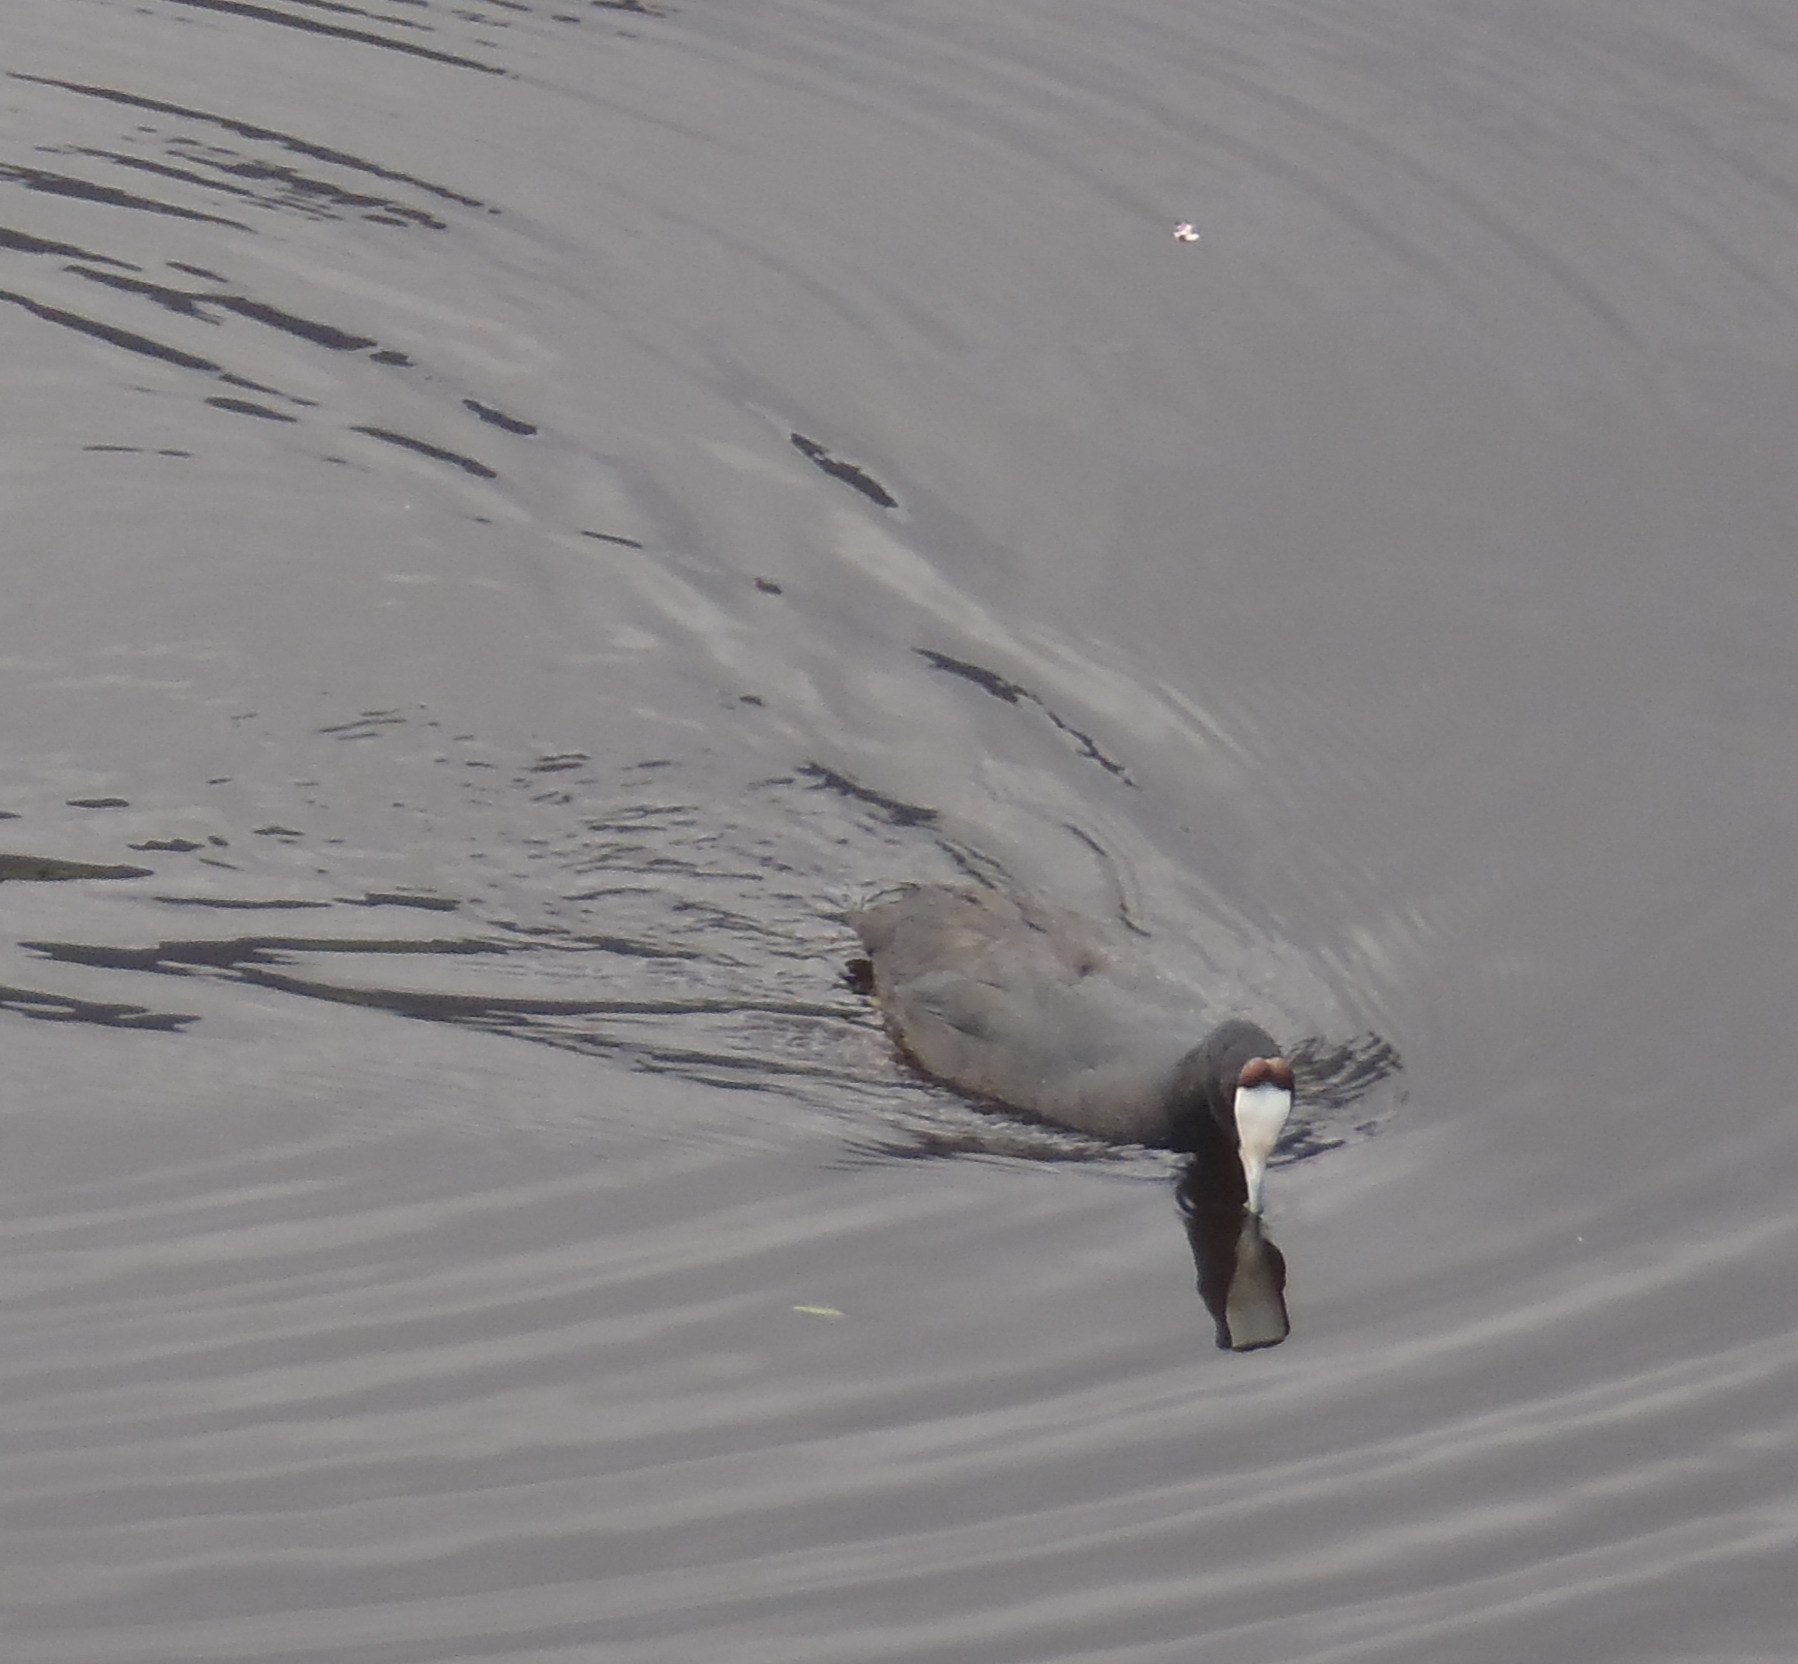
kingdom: Animalia
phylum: Chordata
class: Aves
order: Gruiformes
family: Rallidae
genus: Fulica
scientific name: Fulica cristata
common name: Red-knobbed coot
